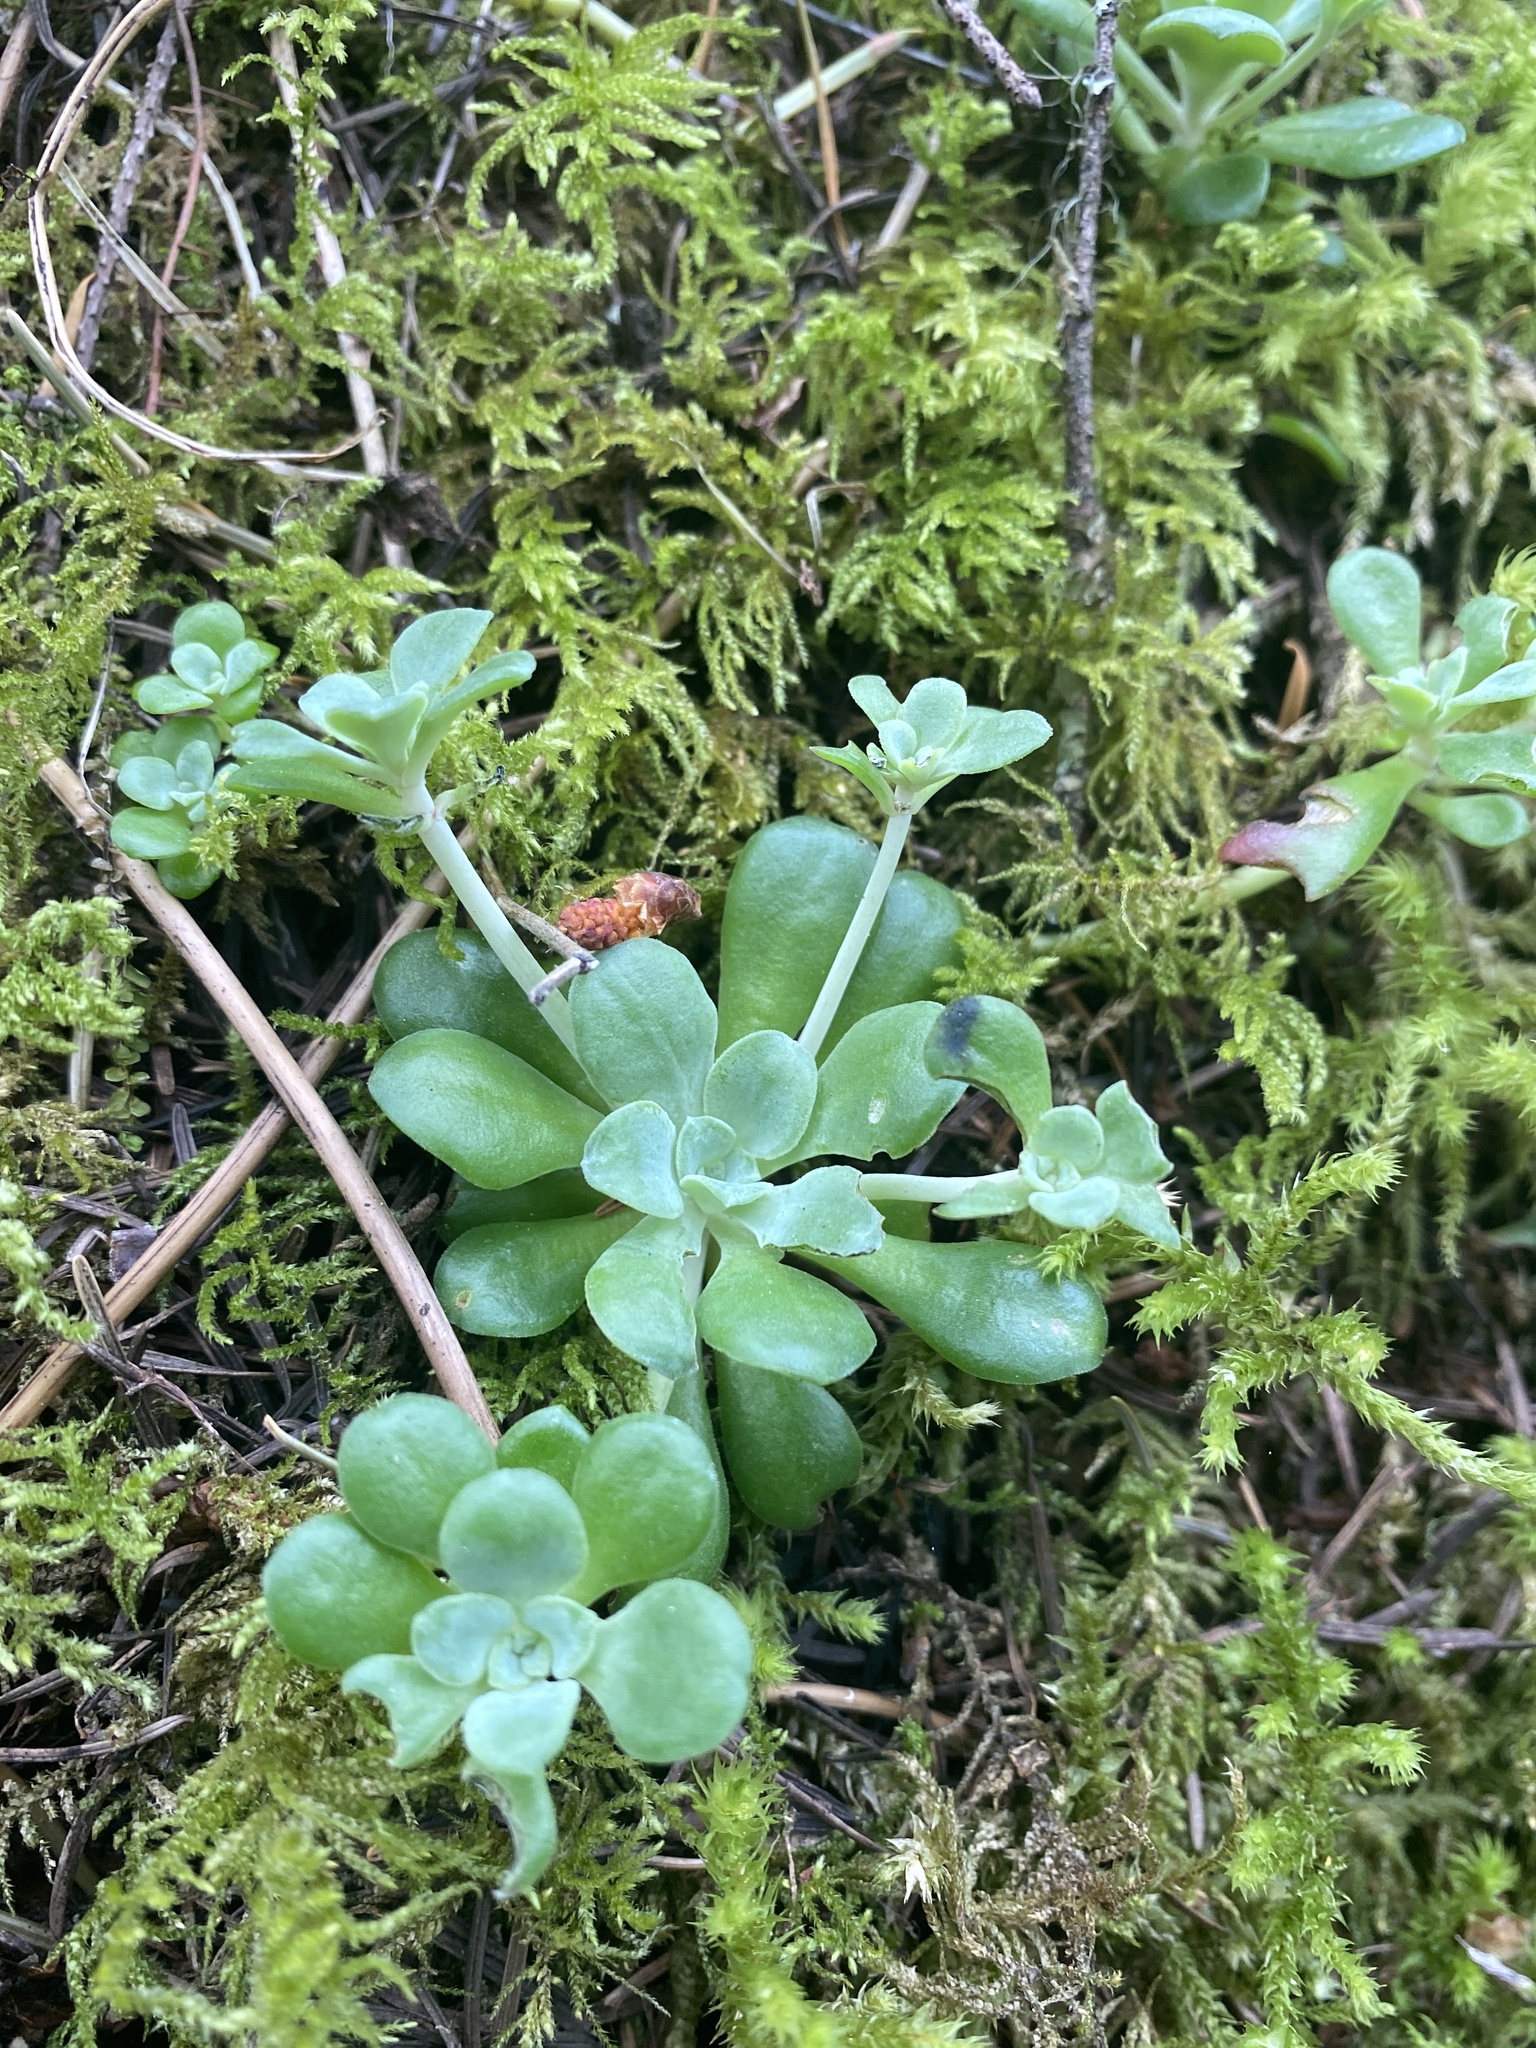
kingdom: Plantae
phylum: Tracheophyta
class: Magnoliopsida
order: Saxifragales
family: Crassulaceae
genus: Sedum
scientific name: Sedum spathulifolium
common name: Colorado stonecrop
